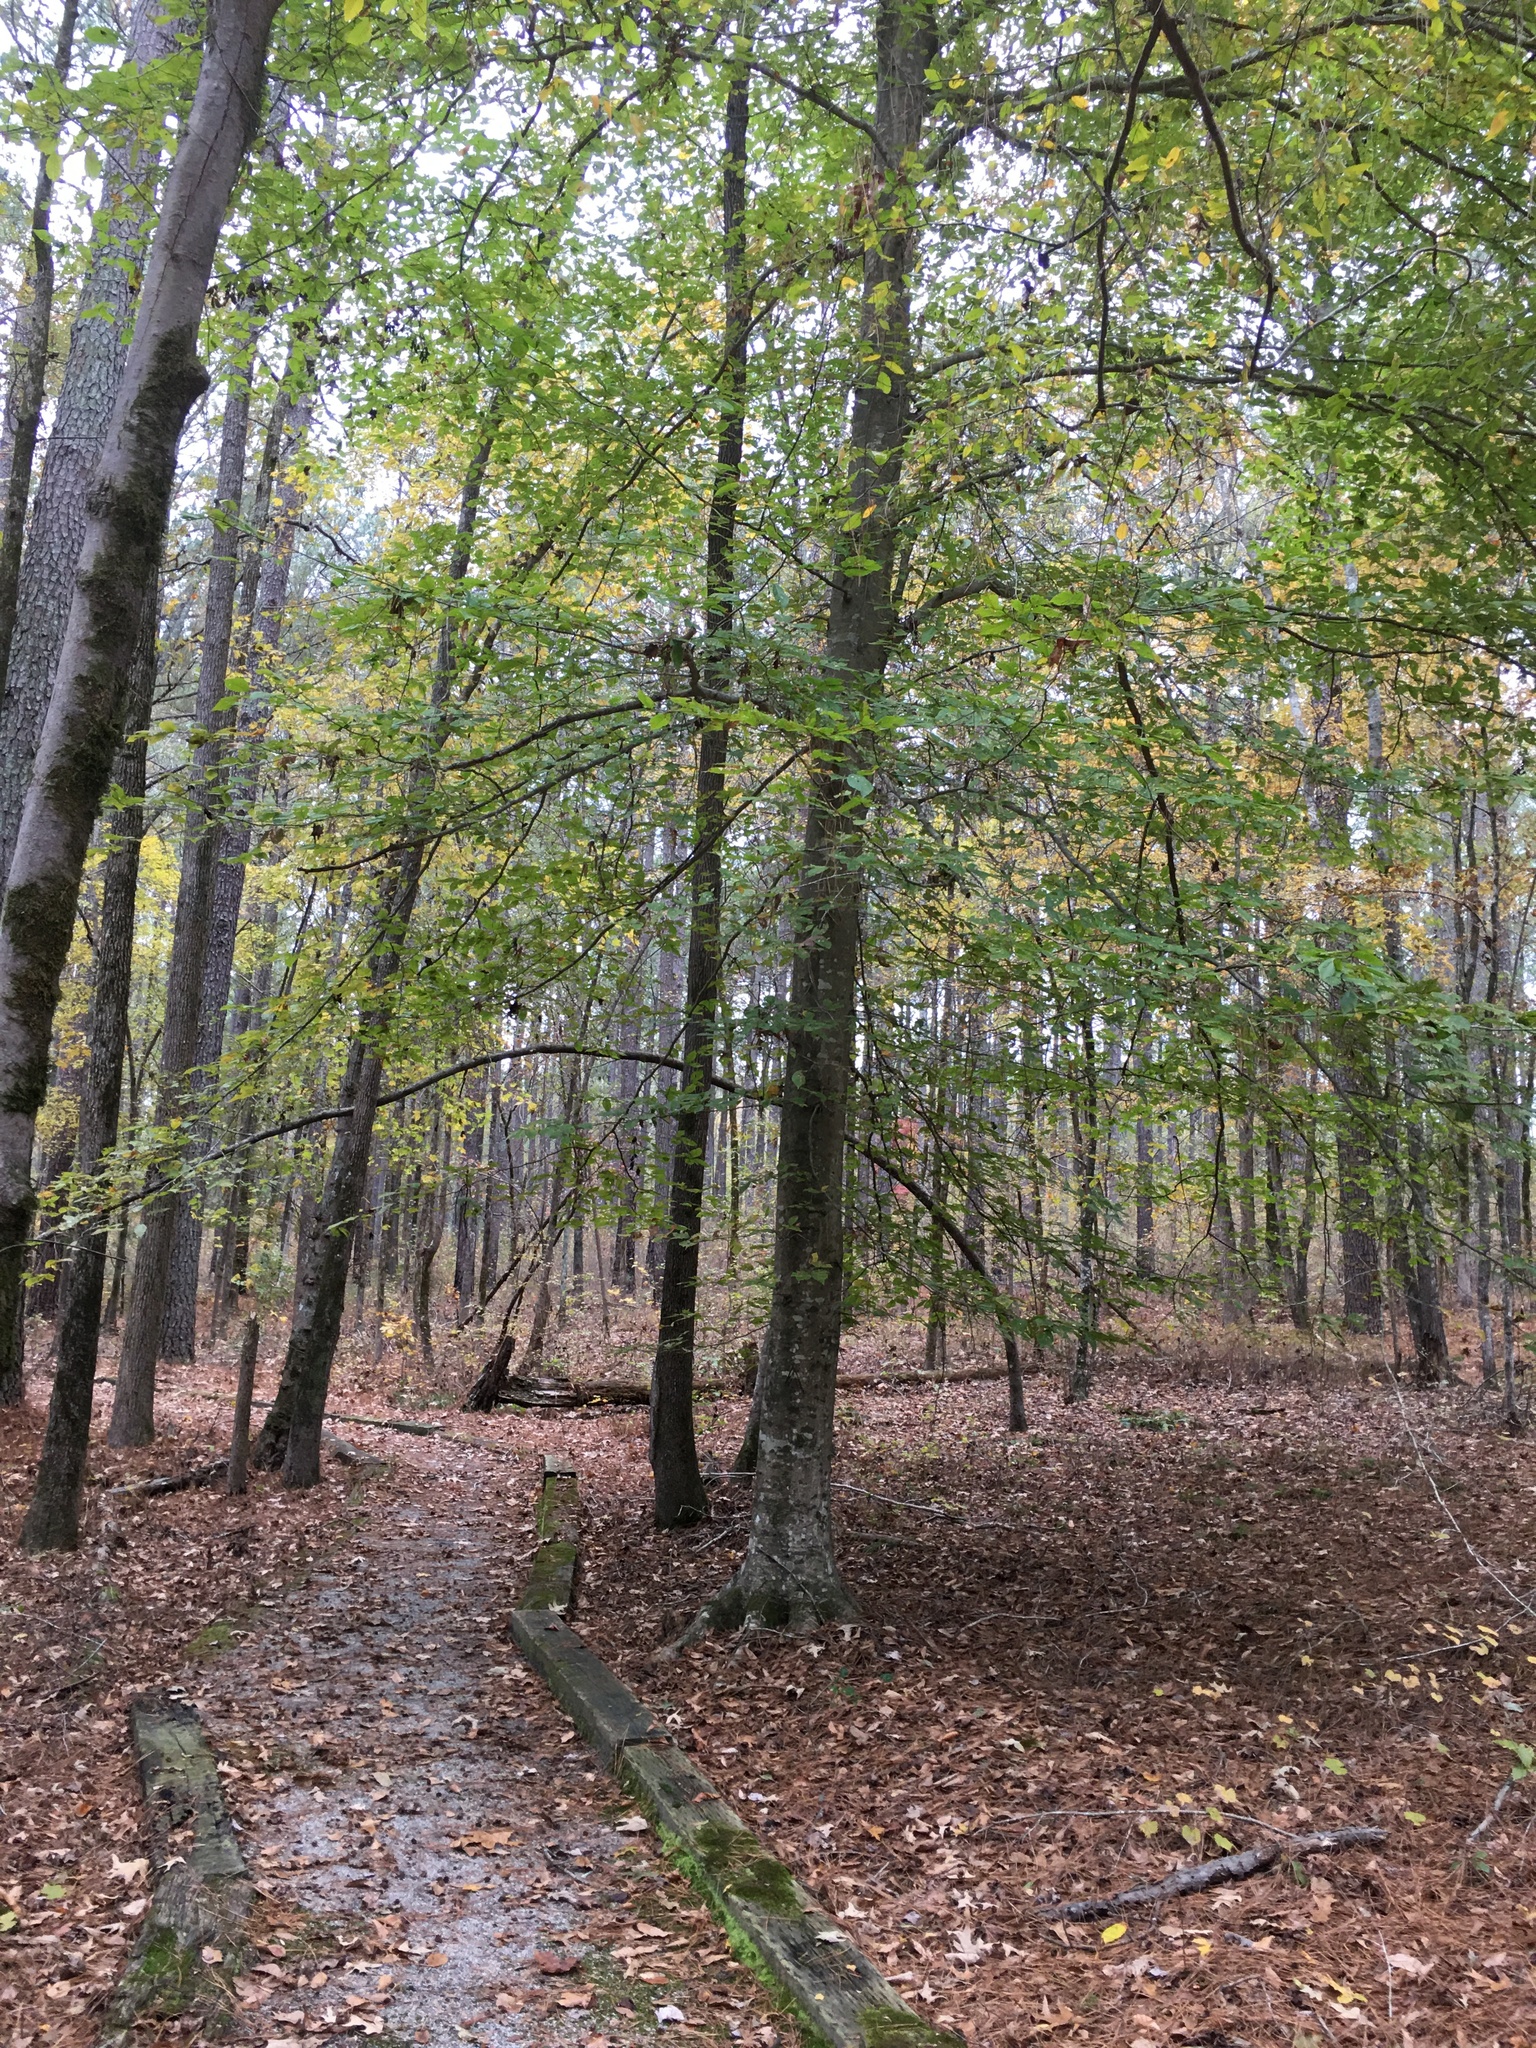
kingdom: Plantae
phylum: Tracheophyta
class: Magnoliopsida
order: Fagales
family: Fagaceae
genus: Fagus
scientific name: Fagus grandifolia
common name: American beech
